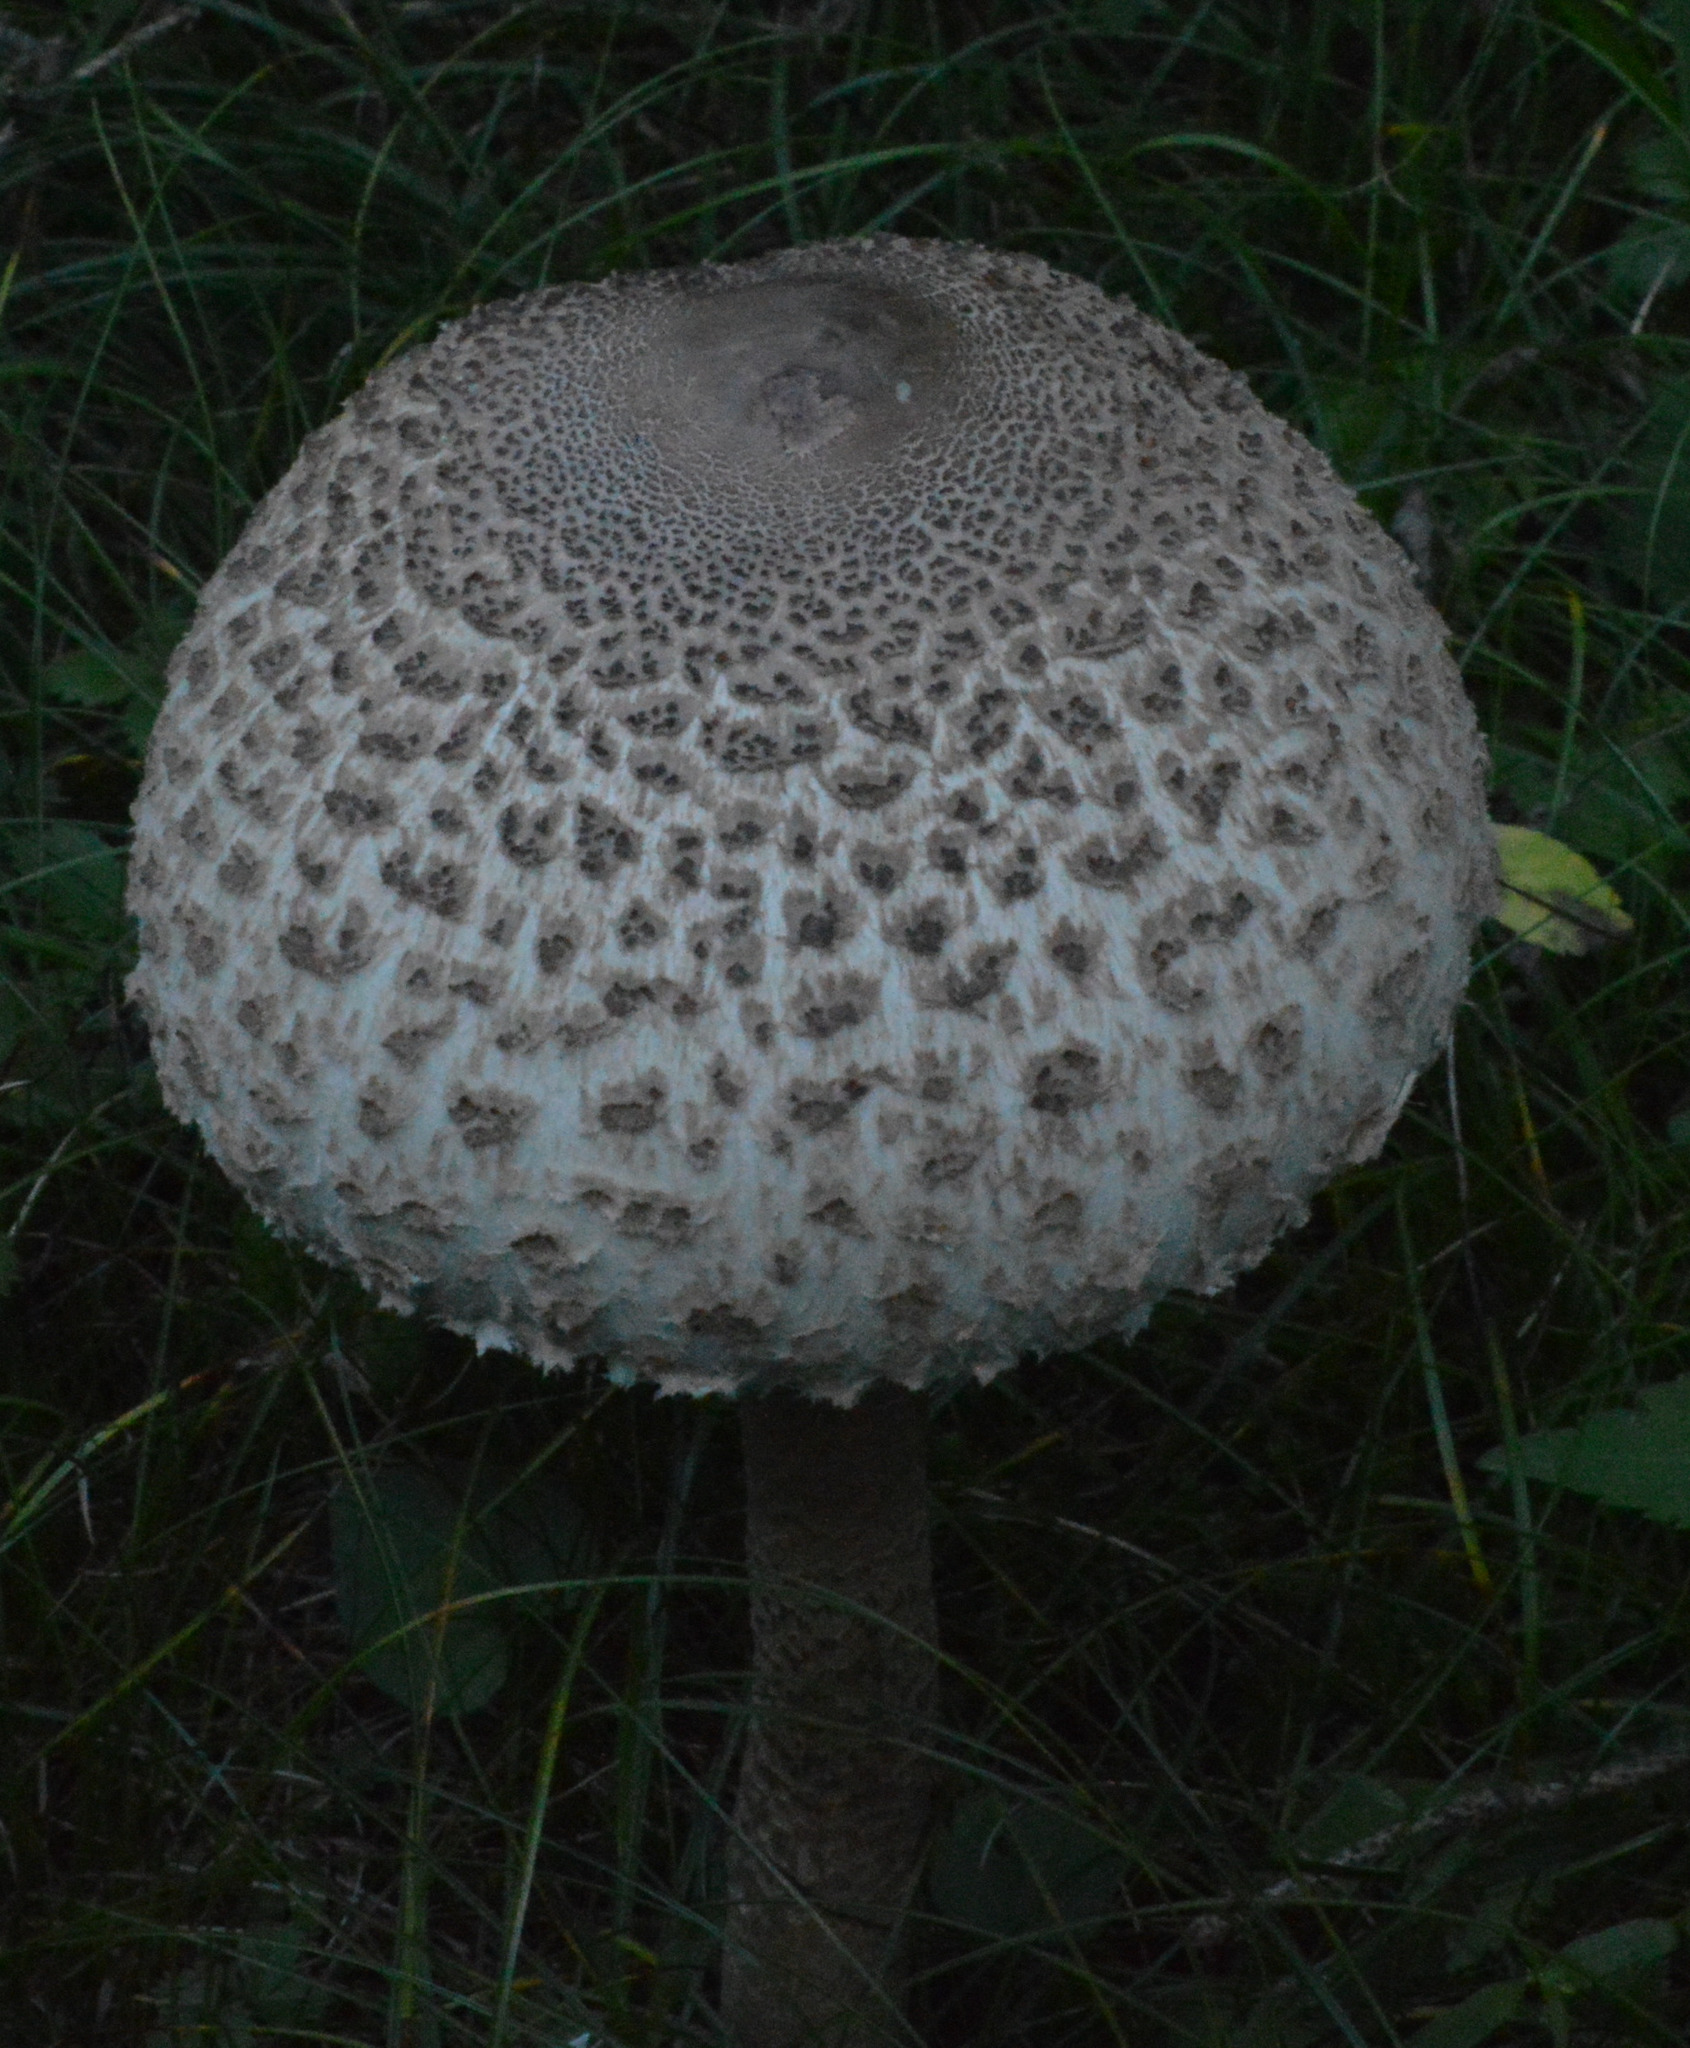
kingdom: Fungi
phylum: Basidiomycota
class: Agaricomycetes
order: Agaricales
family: Agaricaceae
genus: Macrolepiota
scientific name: Macrolepiota procera
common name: Parasol
